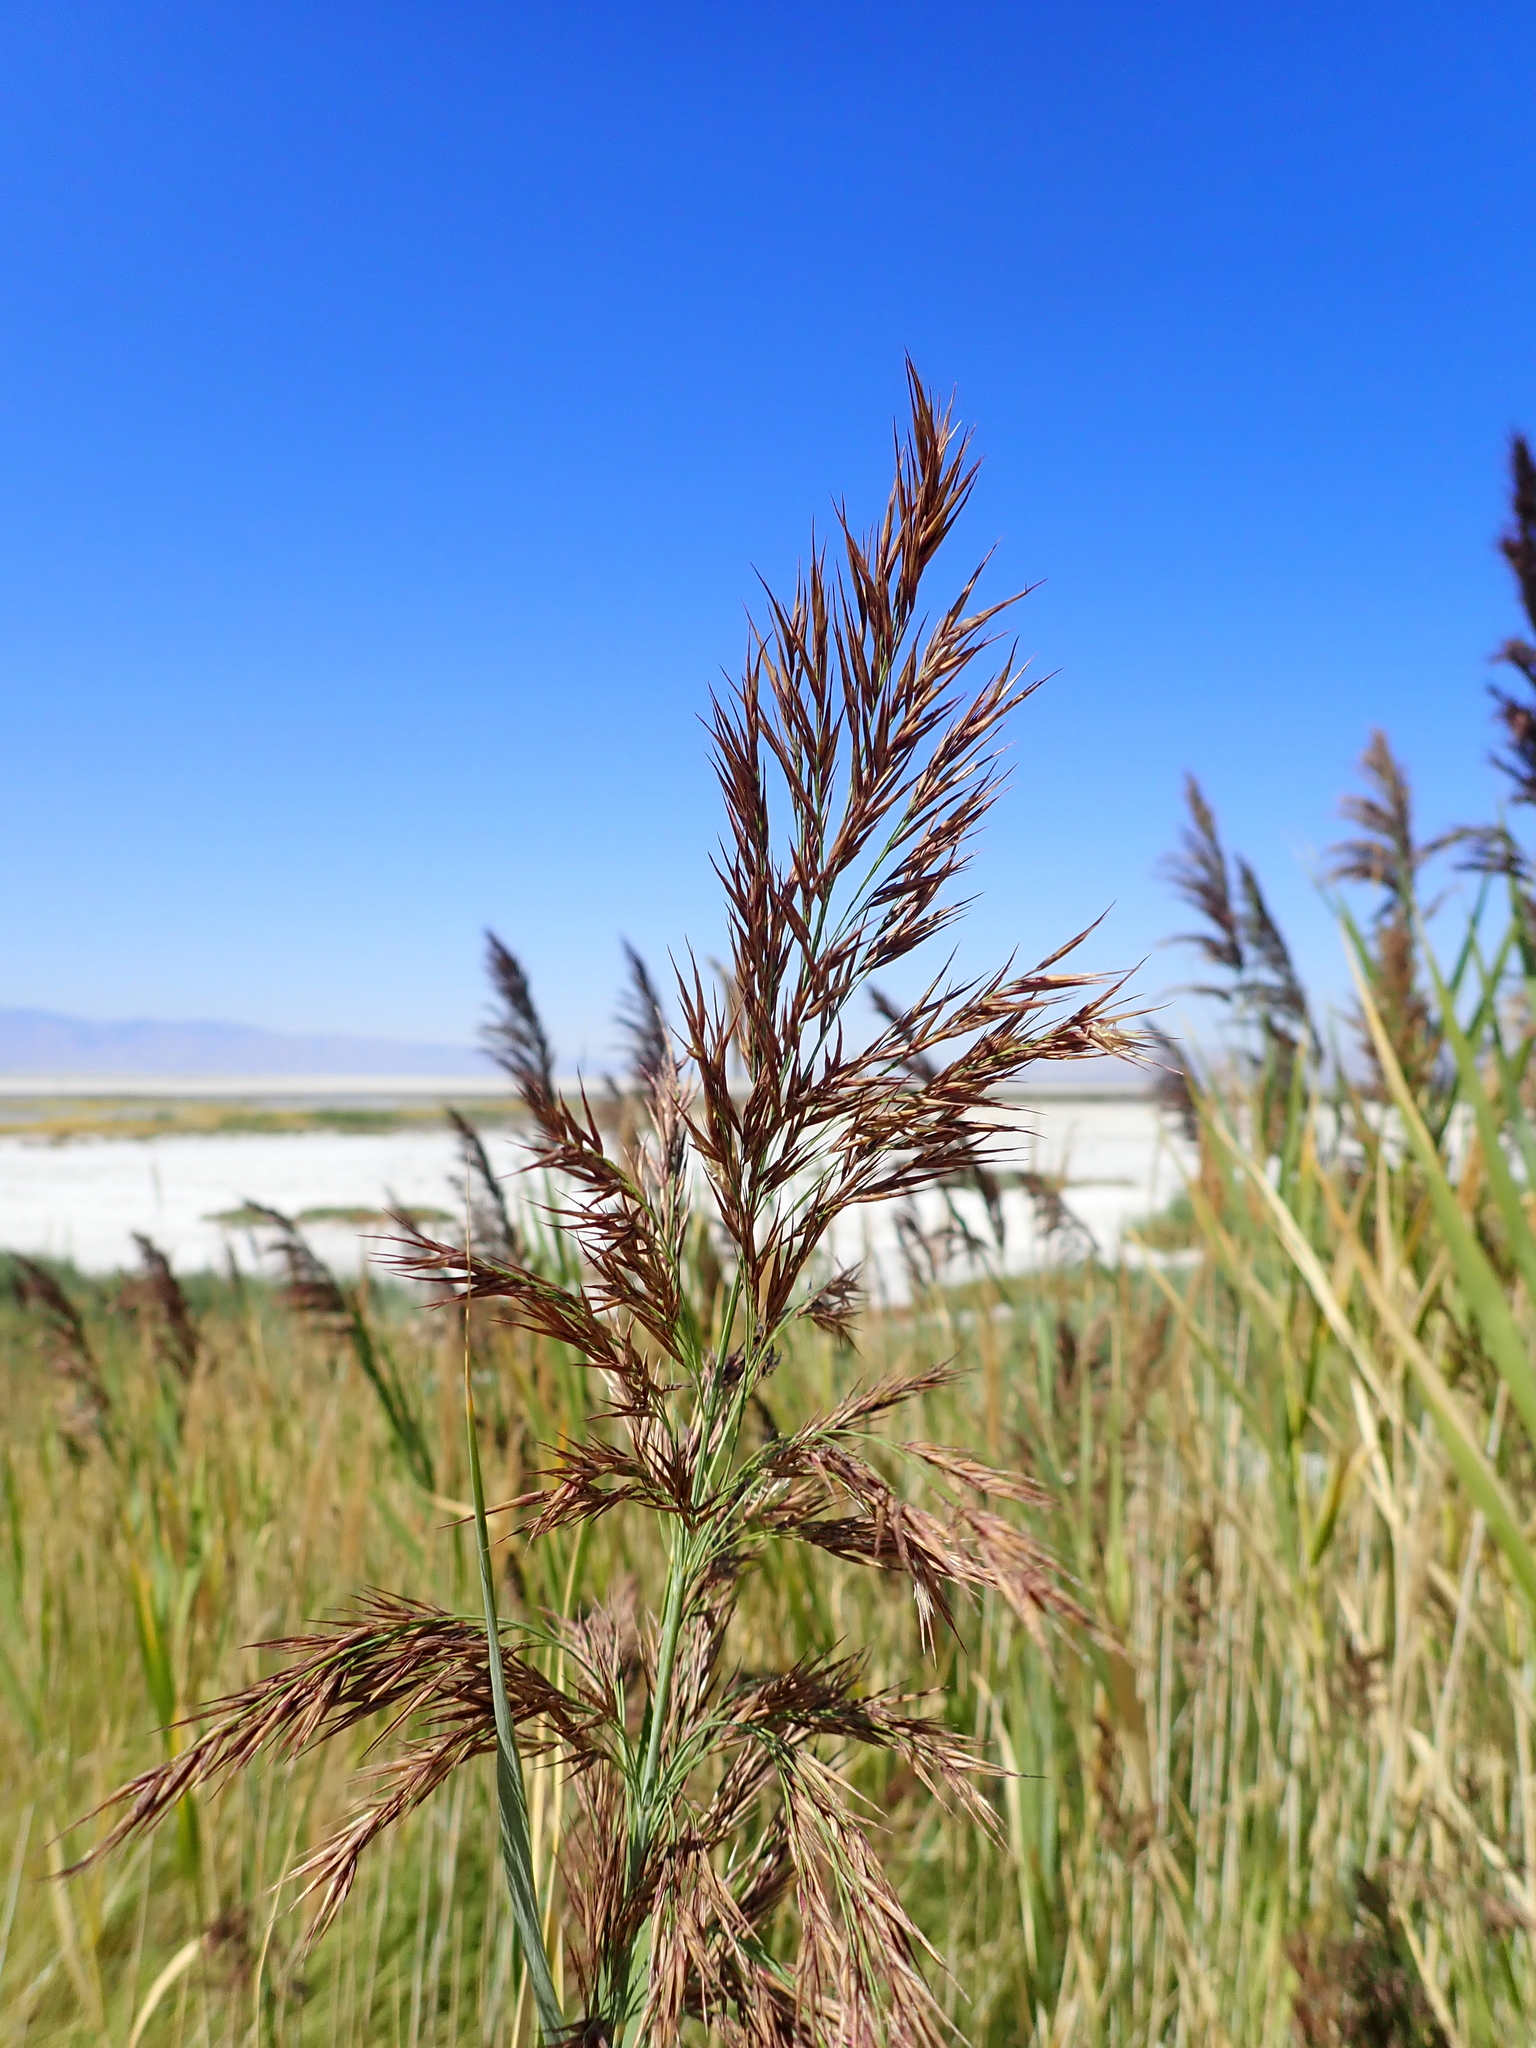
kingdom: Plantae
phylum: Tracheophyta
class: Liliopsida
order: Poales
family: Poaceae
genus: Phragmites
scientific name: Phragmites australis
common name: Common reed
